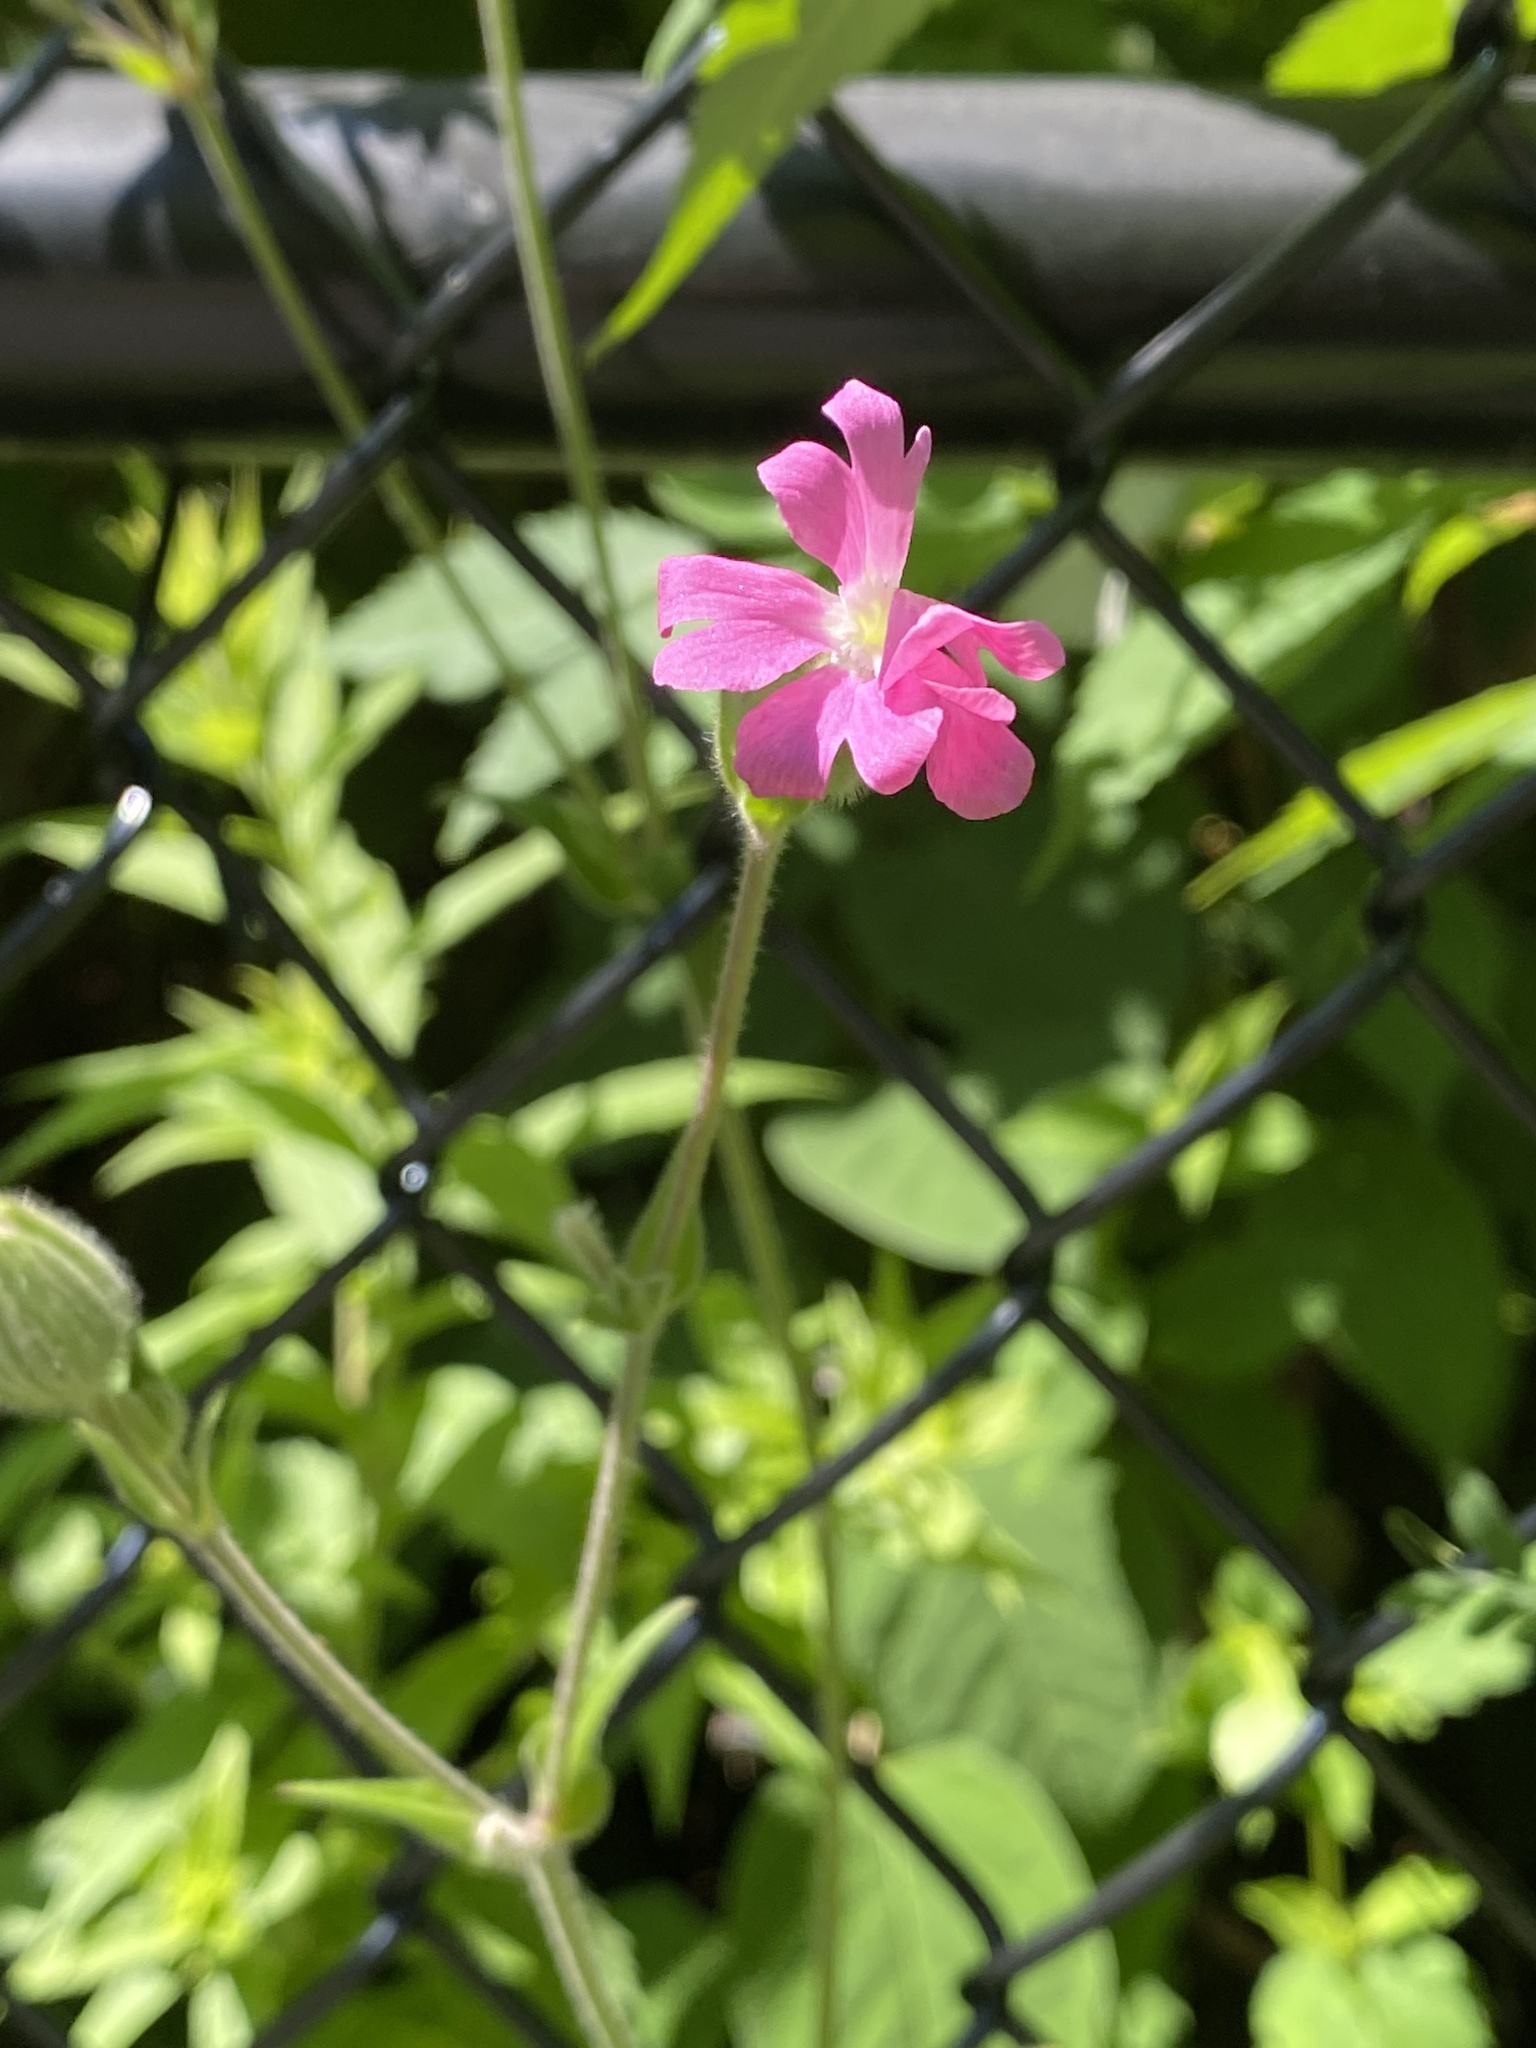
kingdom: Plantae
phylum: Tracheophyta
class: Magnoliopsida
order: Caryophyllales
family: Caryophyllaceae
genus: Silene
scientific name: Silene dioica
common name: Red campion
